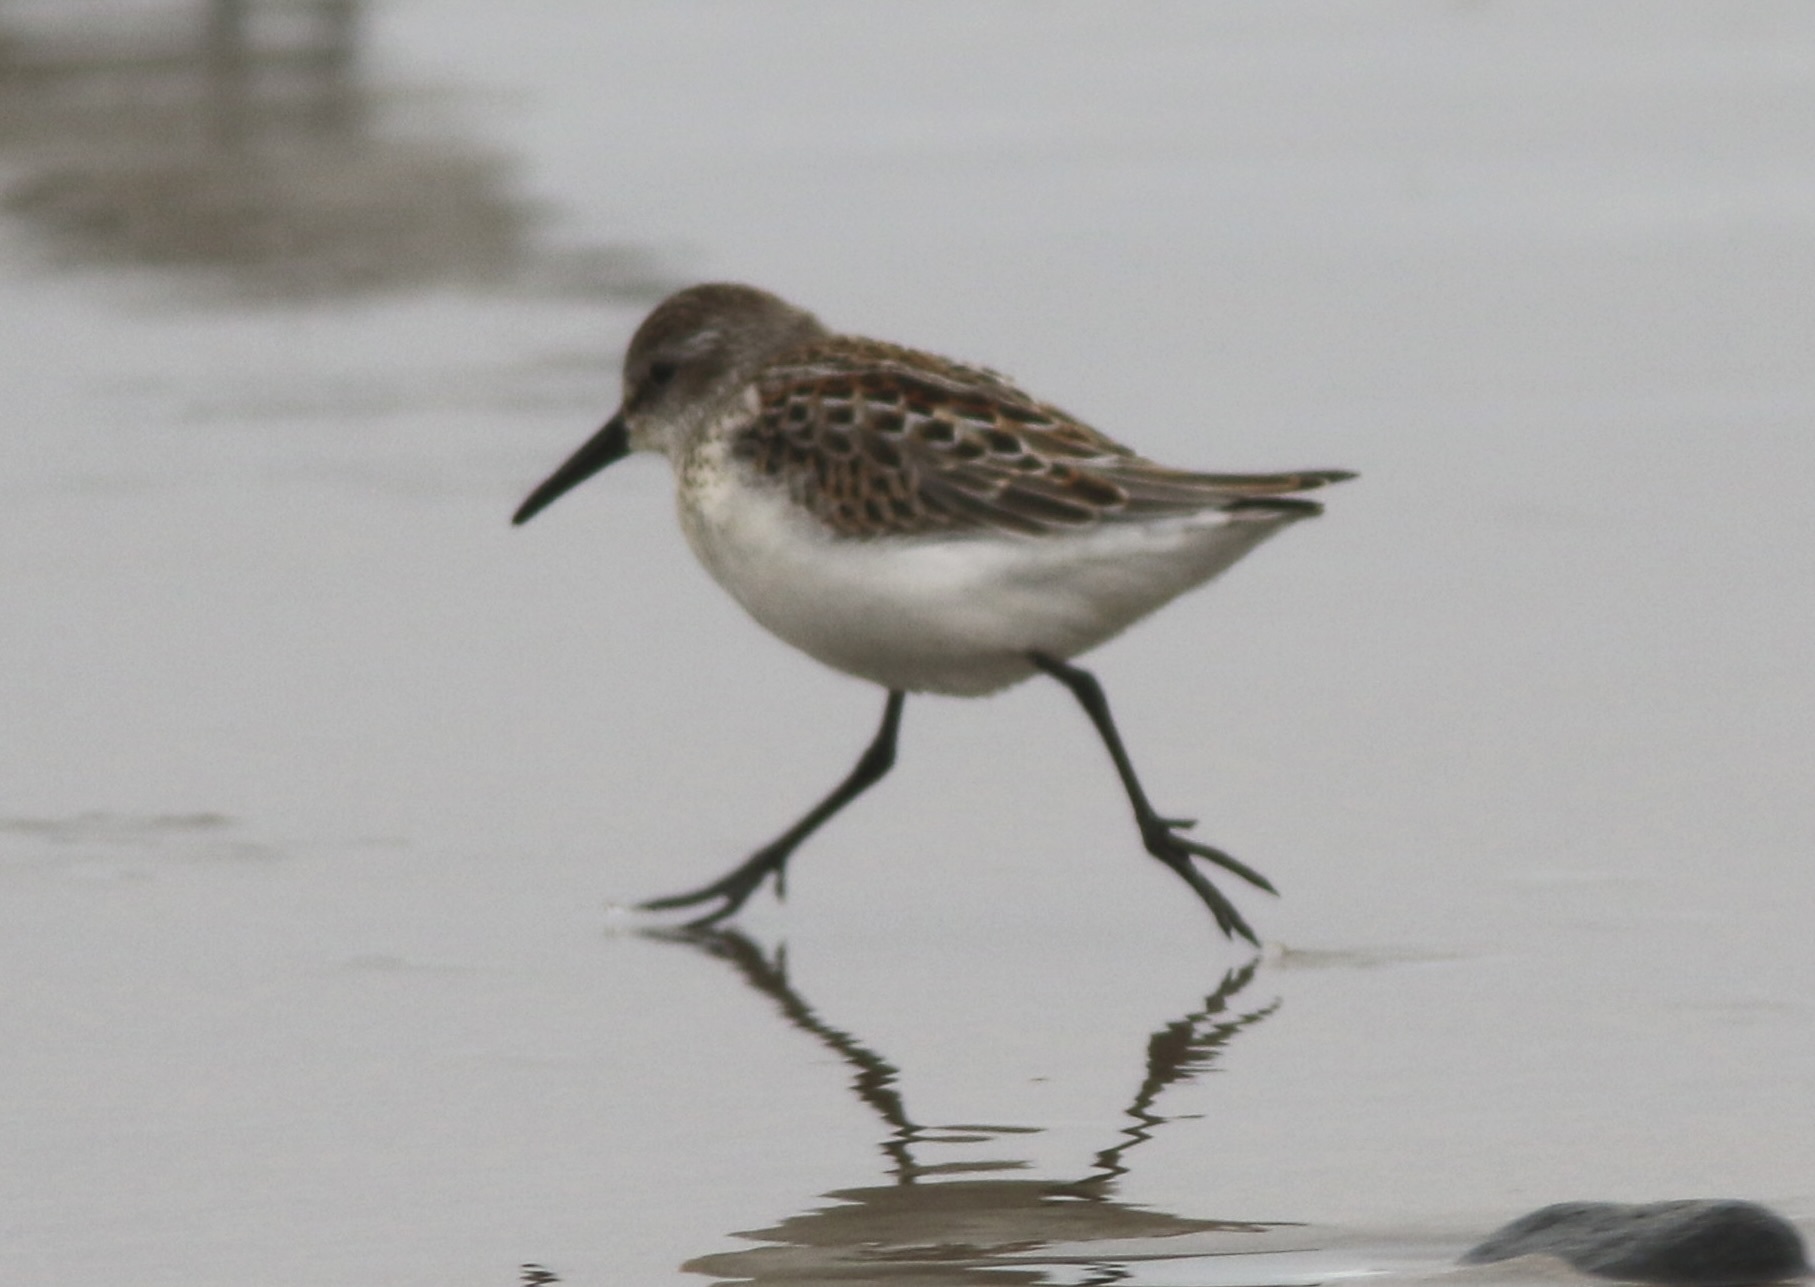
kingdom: Animalia
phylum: Chordata
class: Aves
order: Charadriiformes
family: Scolopacidae
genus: Calidris
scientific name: Calidris mauri
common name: Western sandpiper
